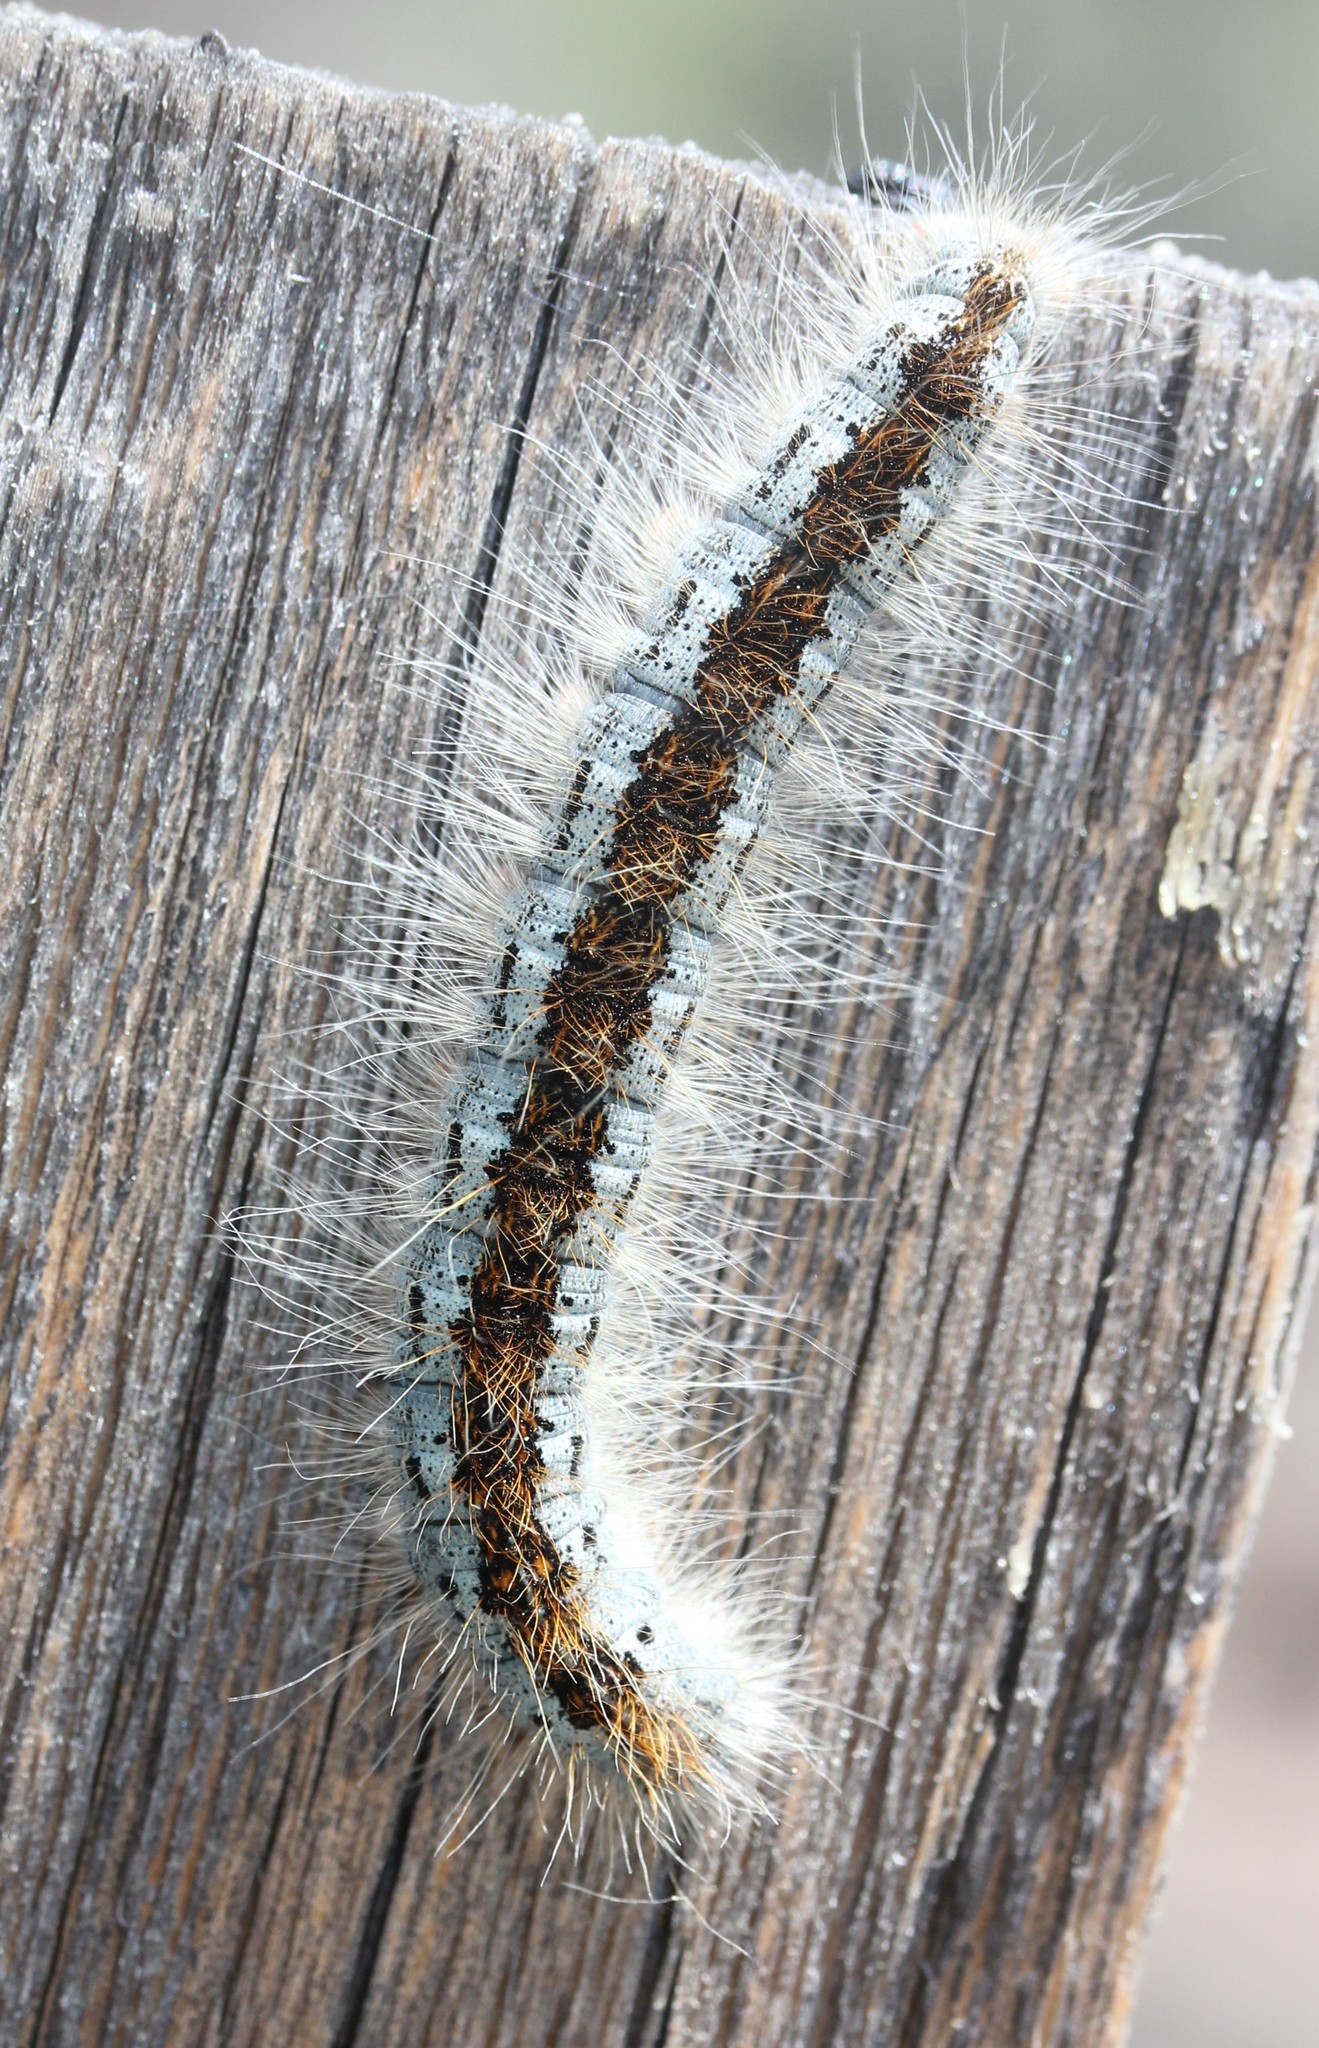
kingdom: Animalia
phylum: Arthropoda
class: Insecta
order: Lepidoptera
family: Lasiocampidae
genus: Malacosoma
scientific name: Malacosoma incurva
